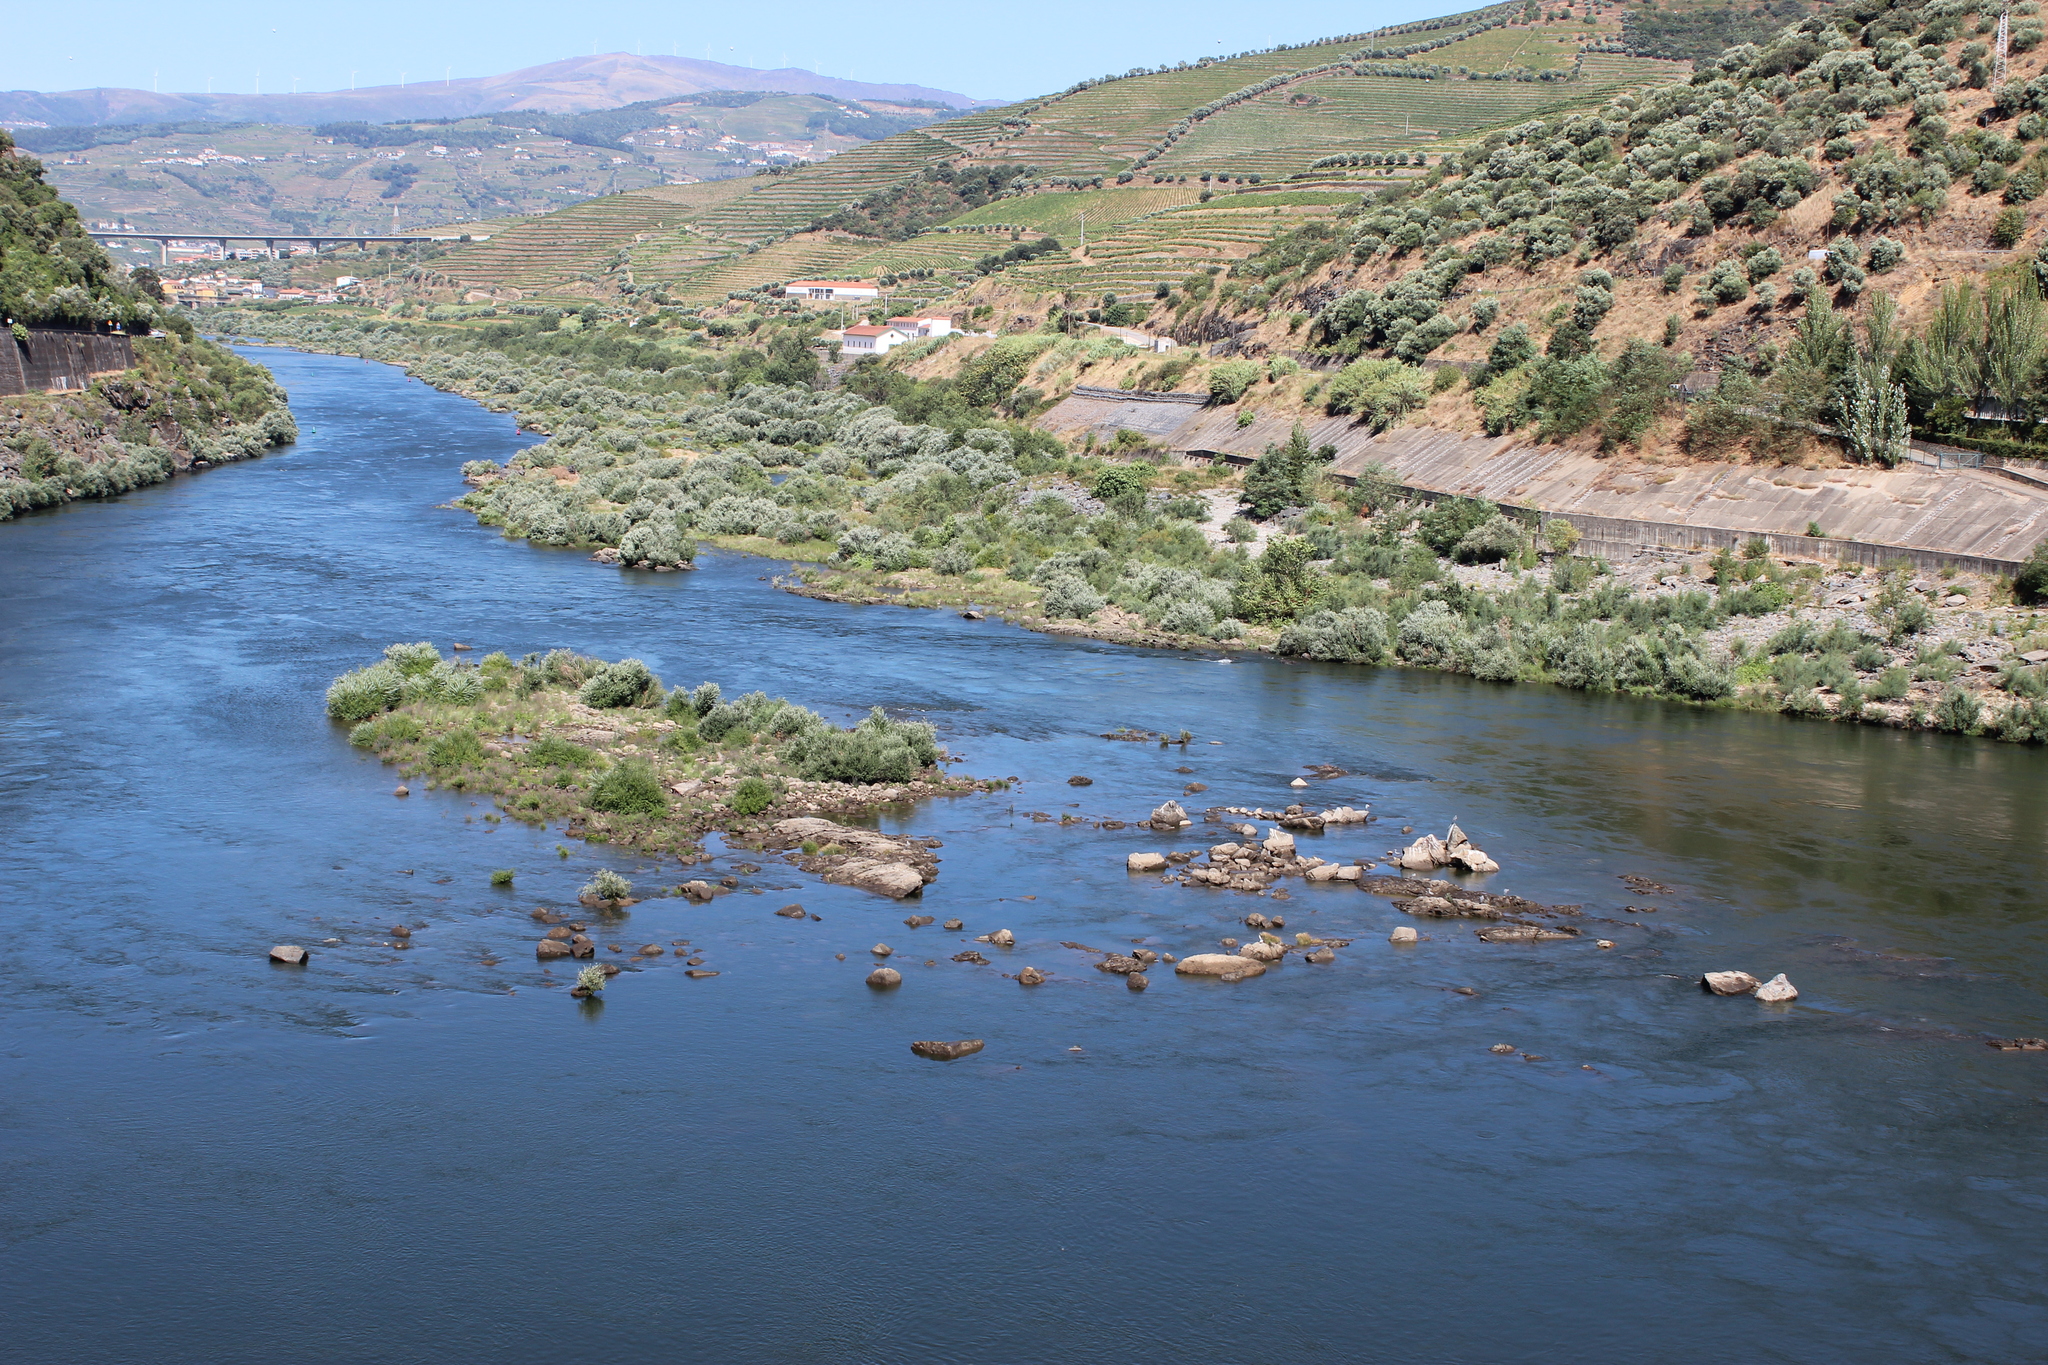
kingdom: Animalia
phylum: Chordata
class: Aves
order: Pelecaniformes
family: Ardeidae
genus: Ardea
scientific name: Ardea cinerea
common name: Grey heron
